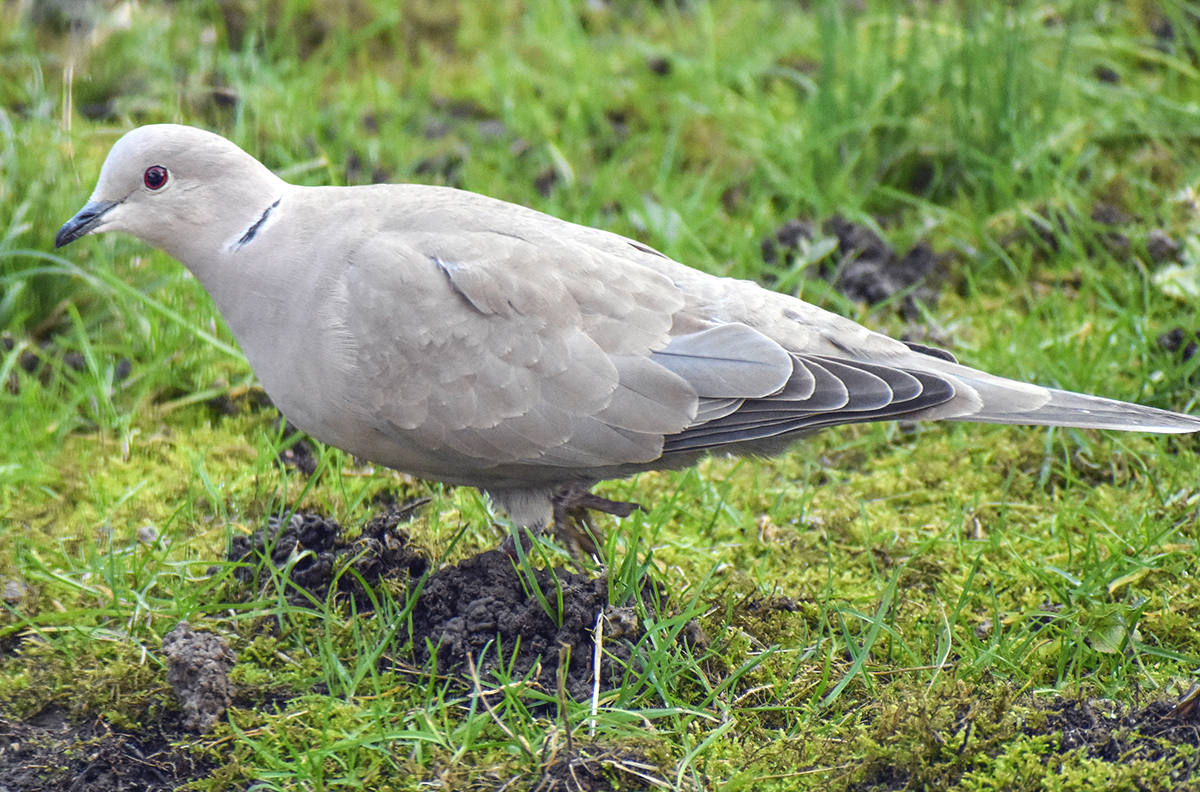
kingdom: Animalia
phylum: Chordata
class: Aves
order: Columbiformes
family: Columbidae
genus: Streptopelia
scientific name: Streptopelia decaocto
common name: Eurasian collared dove
